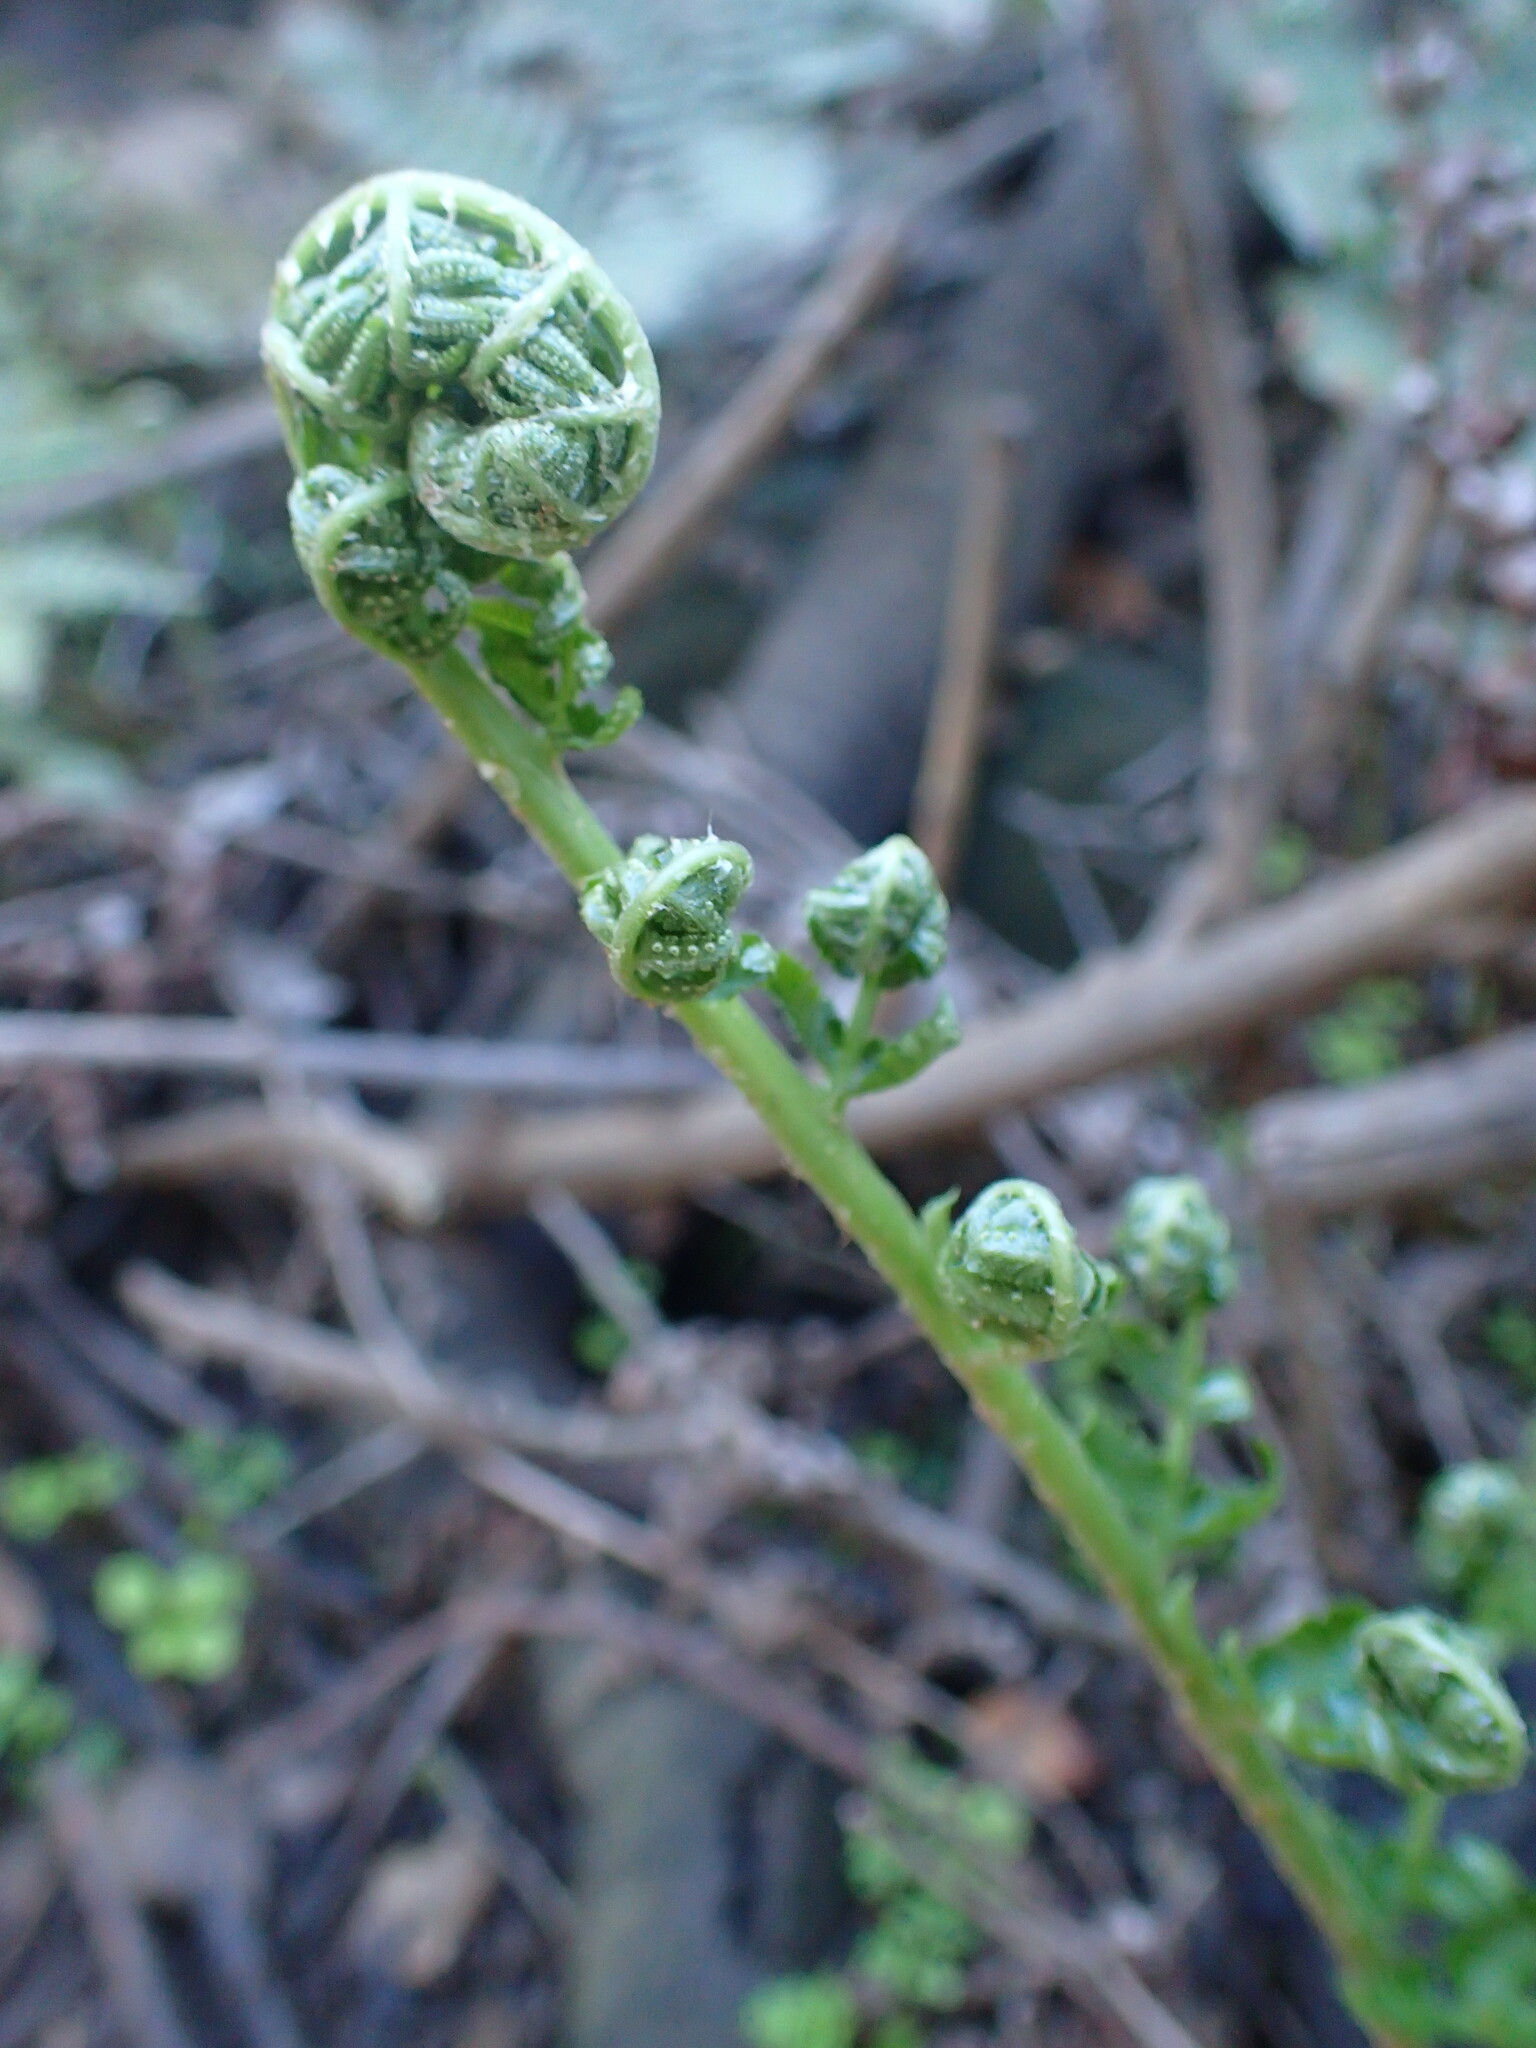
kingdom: Plantae
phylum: Tracheophyta
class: Polypodiopsida
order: Polypodiales
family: Dryopteridaceae
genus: Dryopteris
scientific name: Dryopteris arguta
